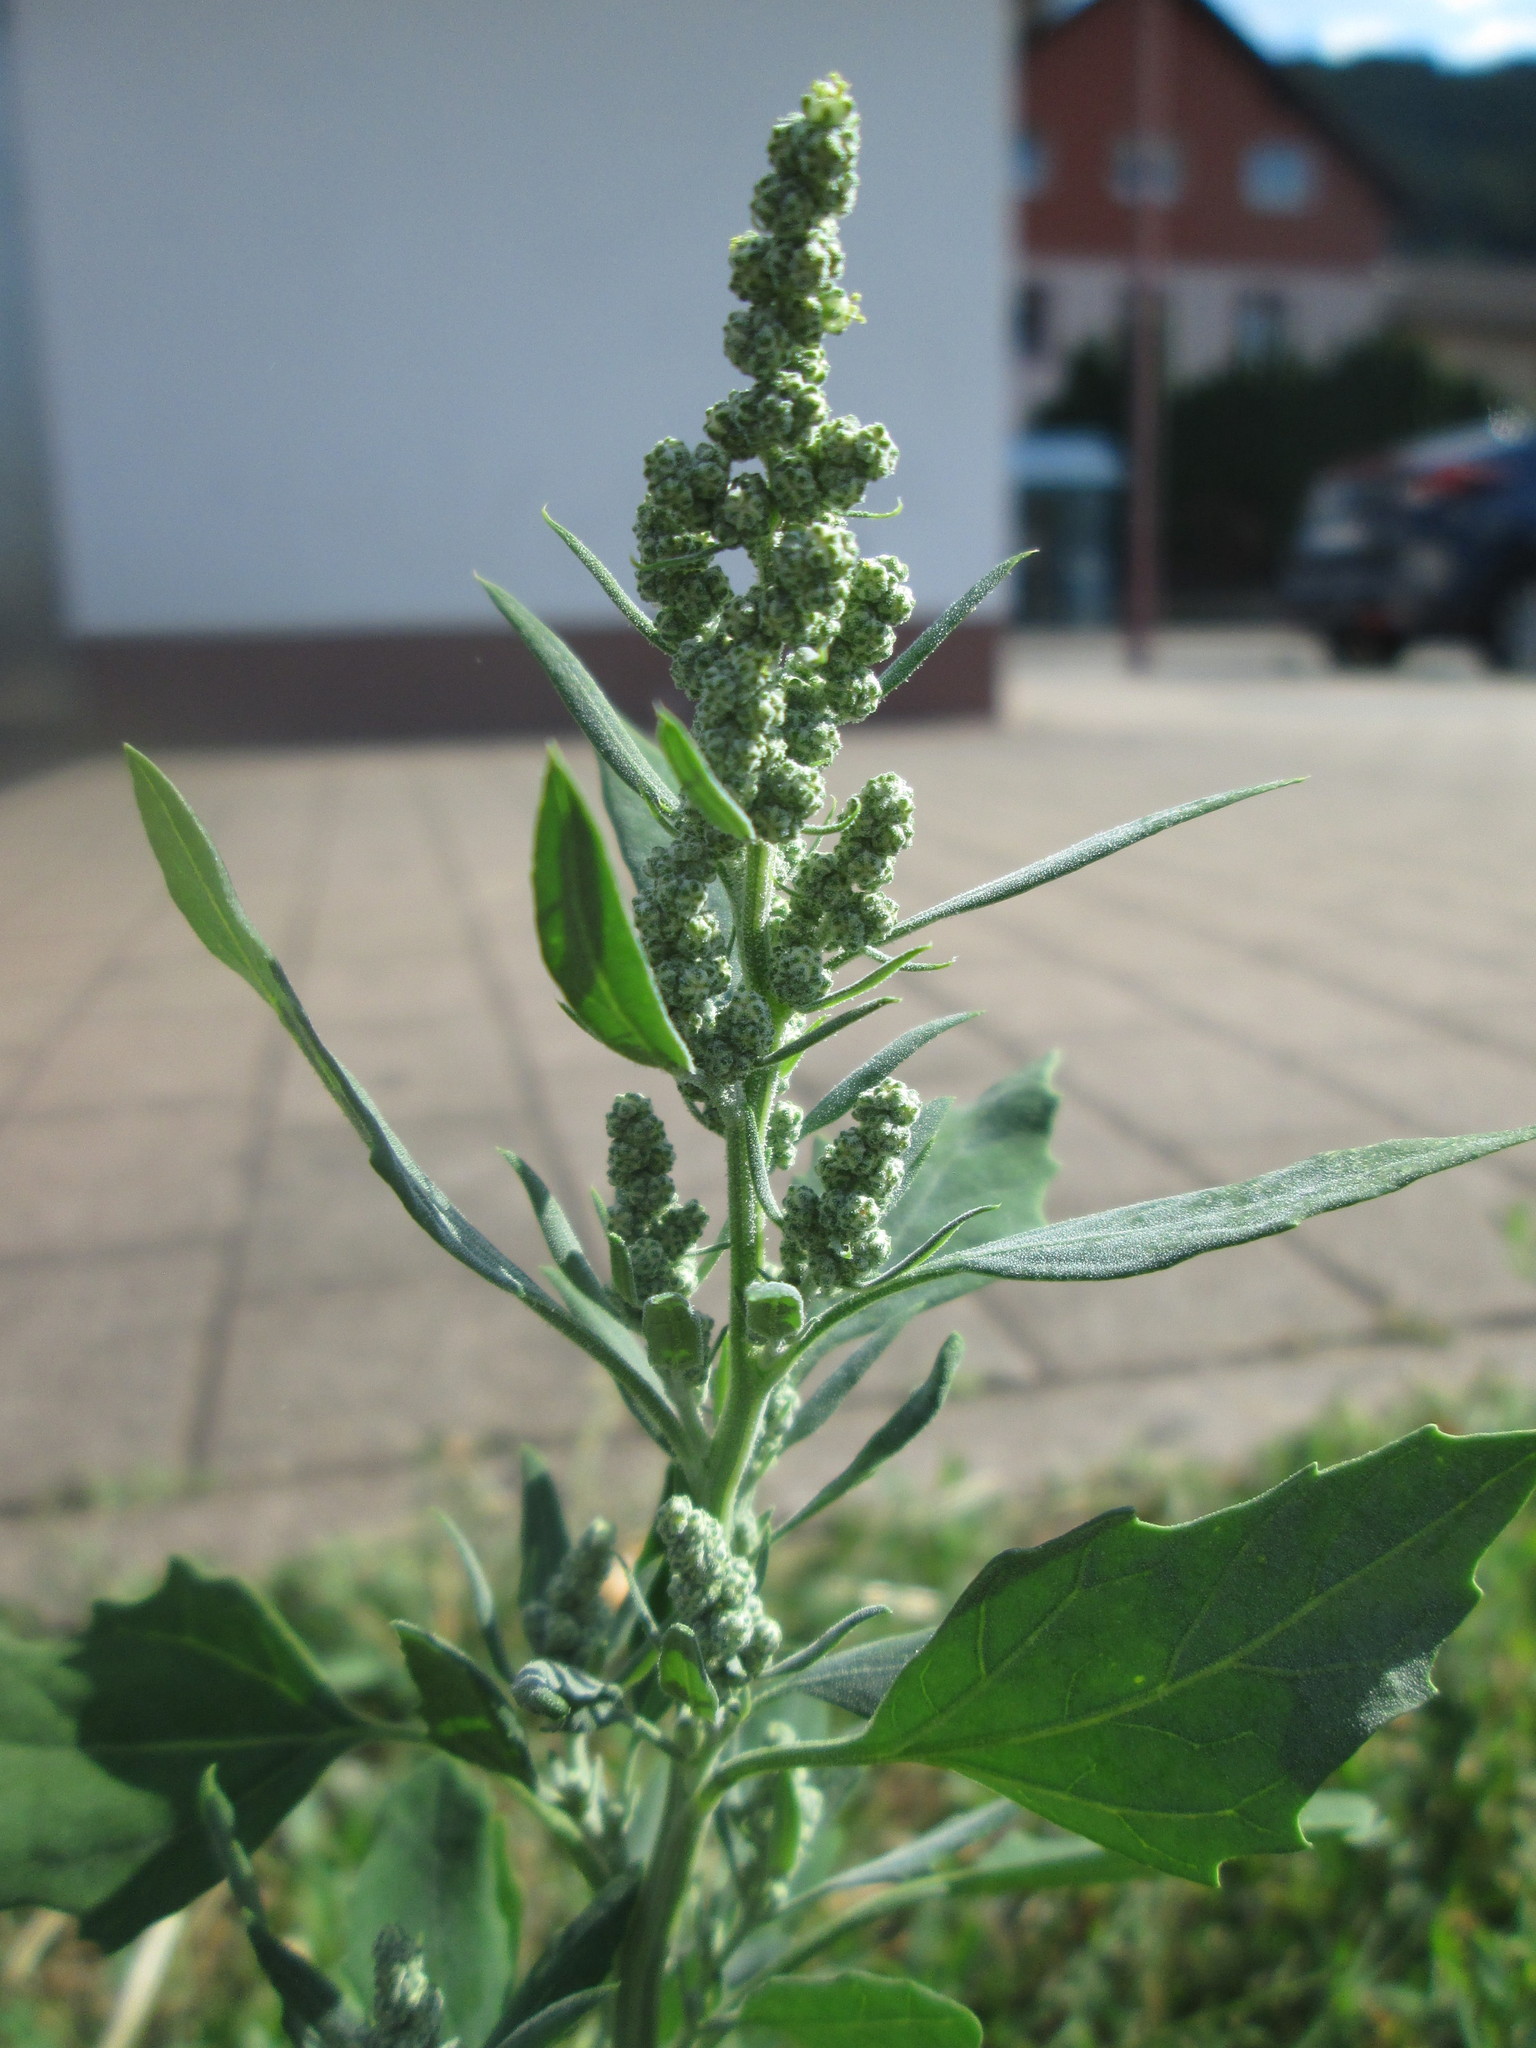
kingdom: Plantae
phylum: Tracheophyta
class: Magnoliopsida
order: Caryophyllales
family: Amaranthaceae
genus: Chenopodium
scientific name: Chenopodium album
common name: Fat-hen
